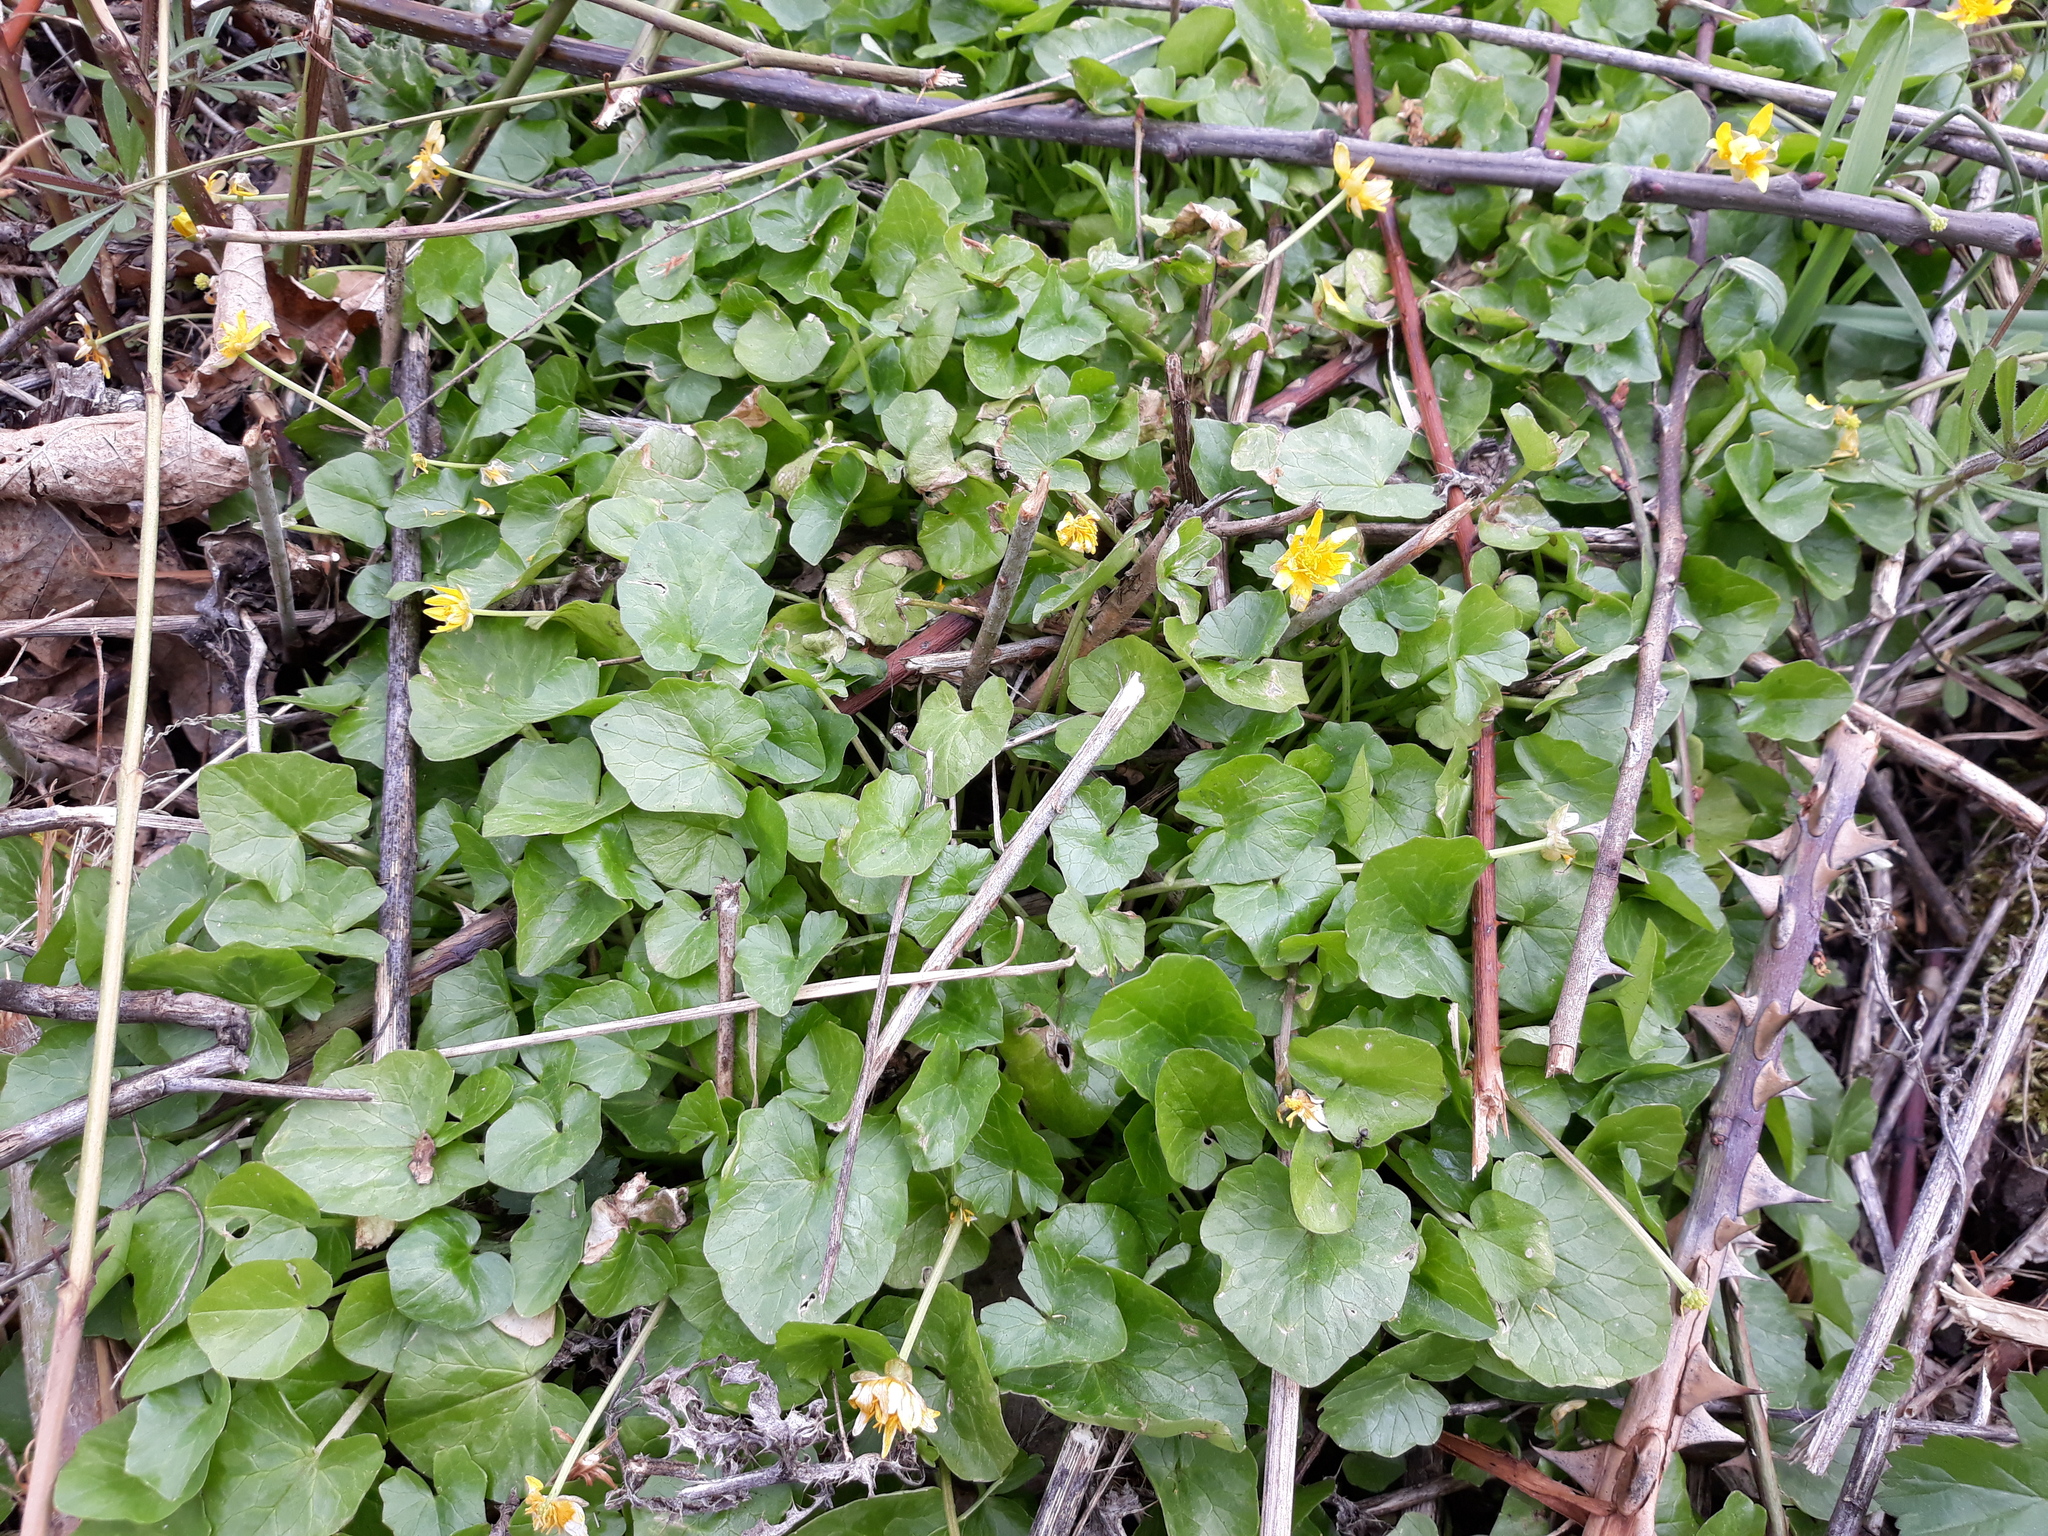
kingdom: Plantae
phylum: Tracheophyta
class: Magnoliopsida
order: Ranunculales
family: Ranunculaceae
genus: Ficaria
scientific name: Ficaria verna
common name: Lesser celandine
